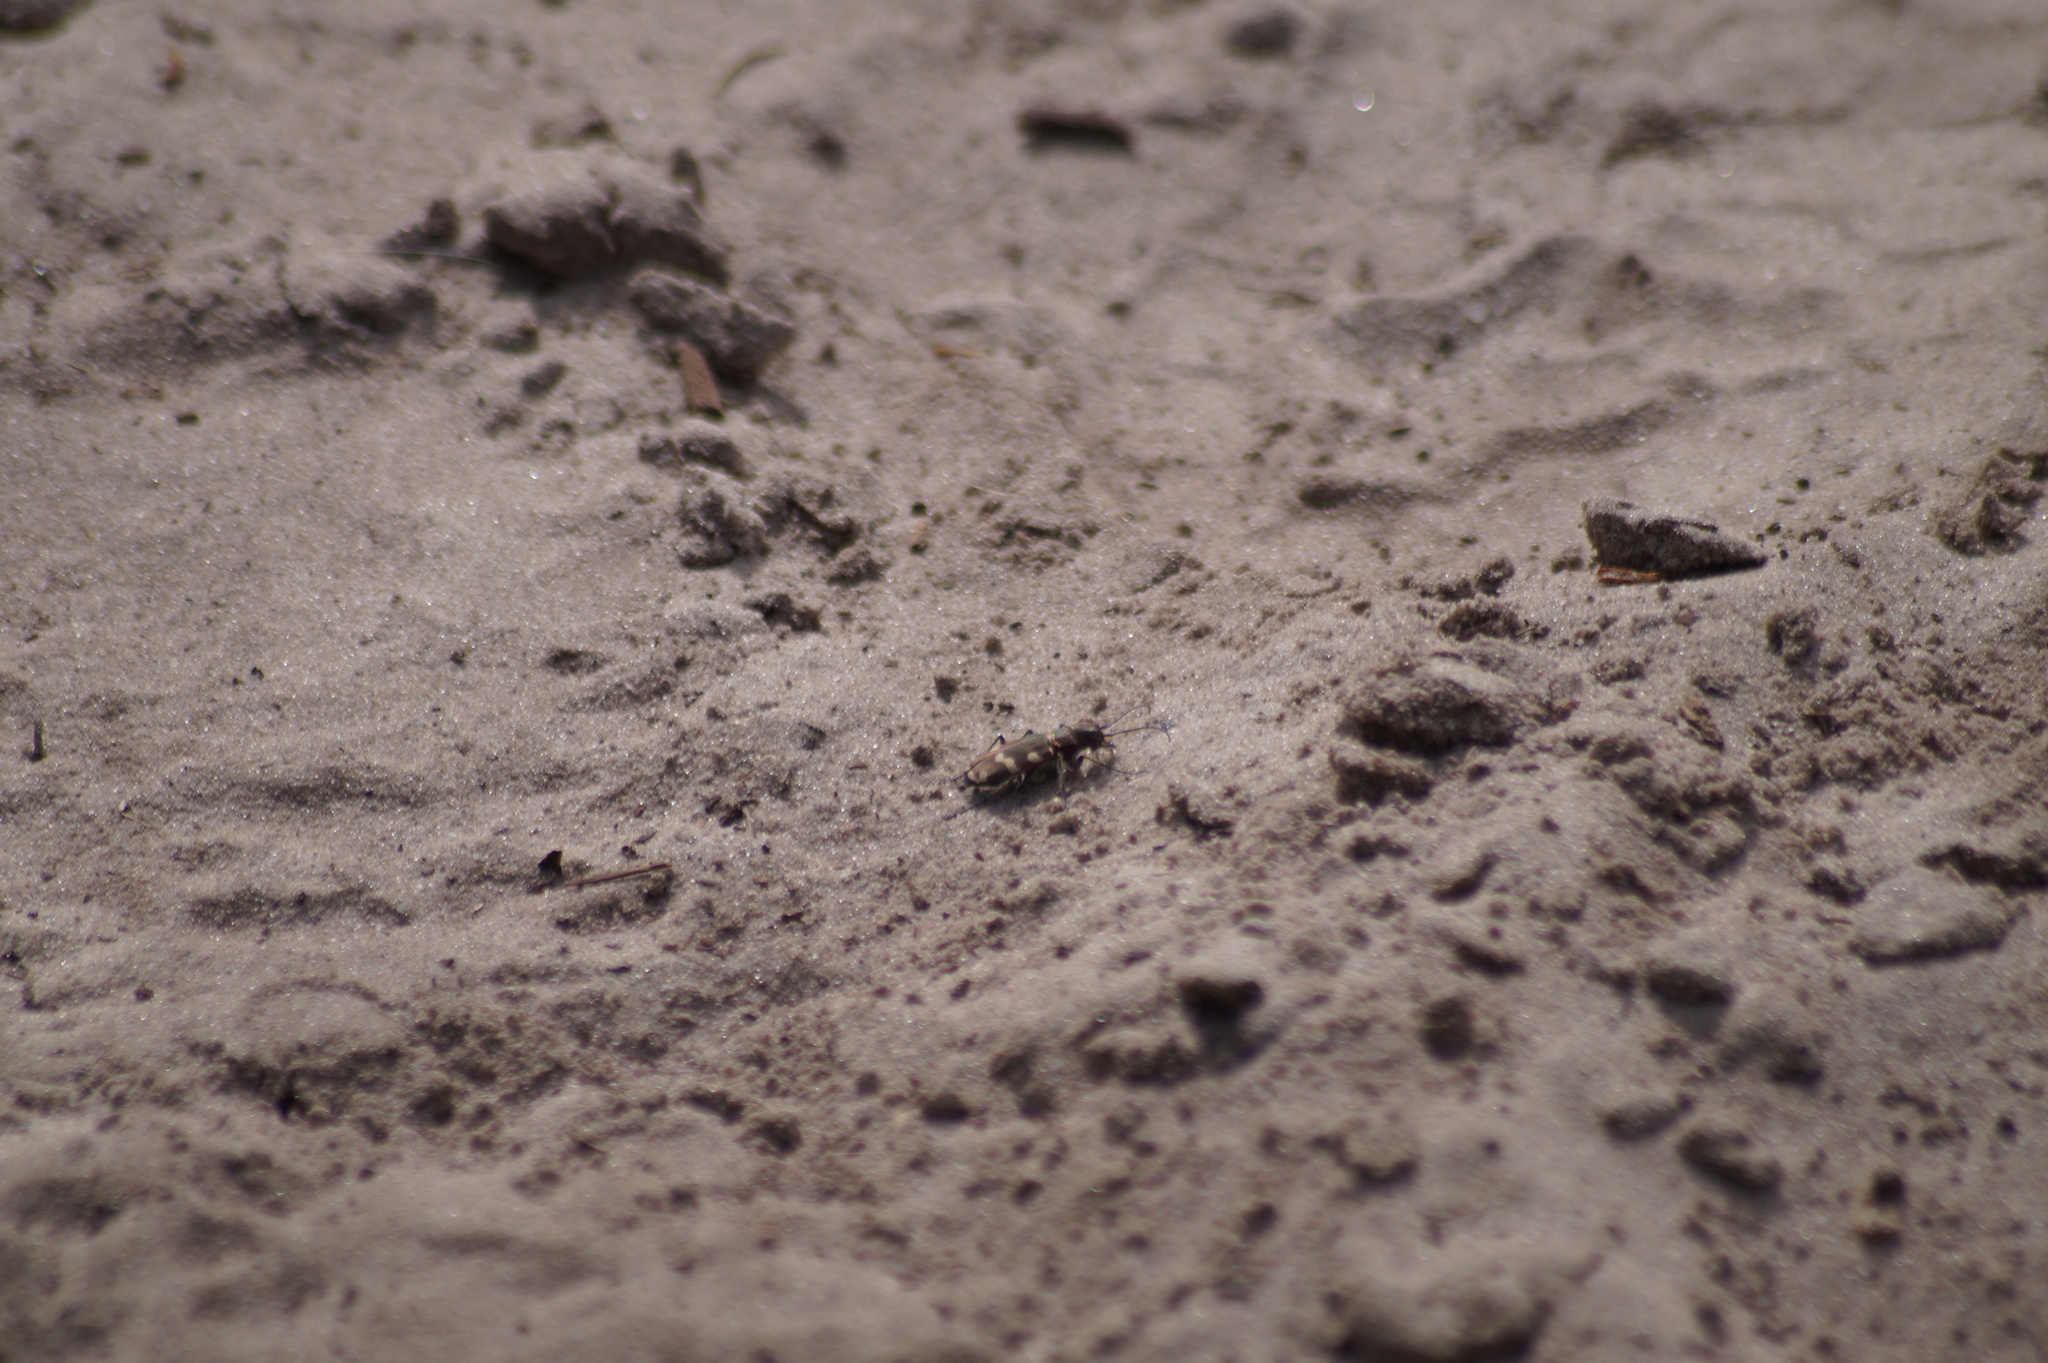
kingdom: Animalia
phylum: Arthropoda
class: Insecta
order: Coleoptera
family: Carabidae
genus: Cicindela
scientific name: Cicindela hybrida
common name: Northern dune tiger beetle
